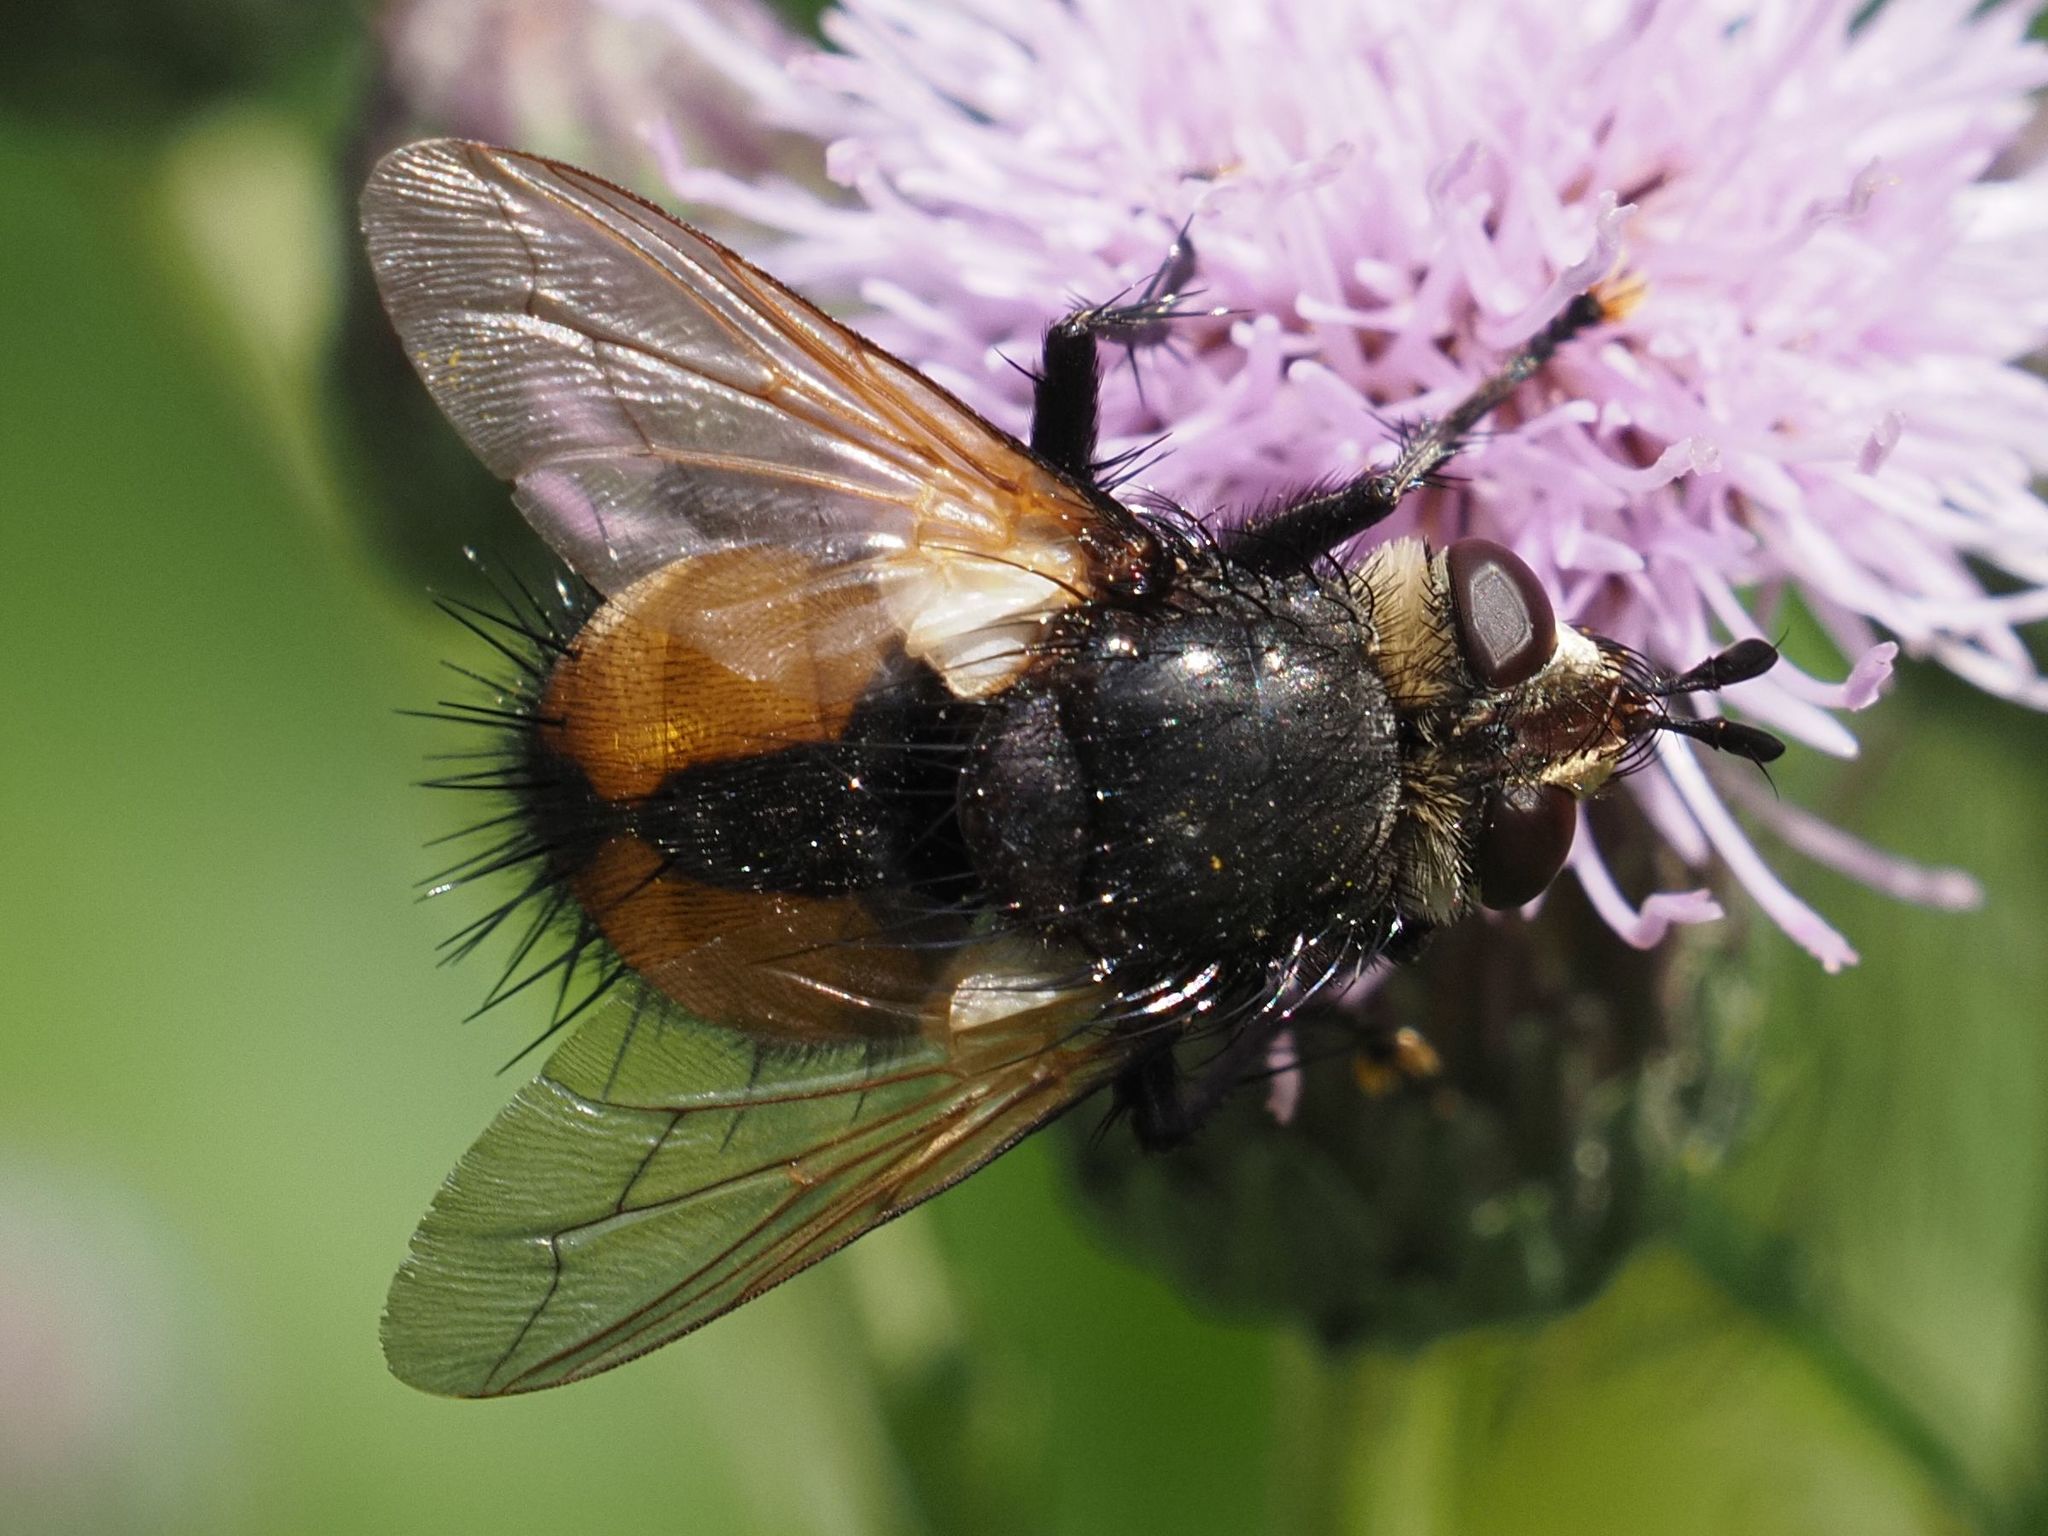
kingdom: Animalia
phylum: Arthropoda
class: Insecta
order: Diptera
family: Tachinidae
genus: Nowickia
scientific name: Nowickia ferox
